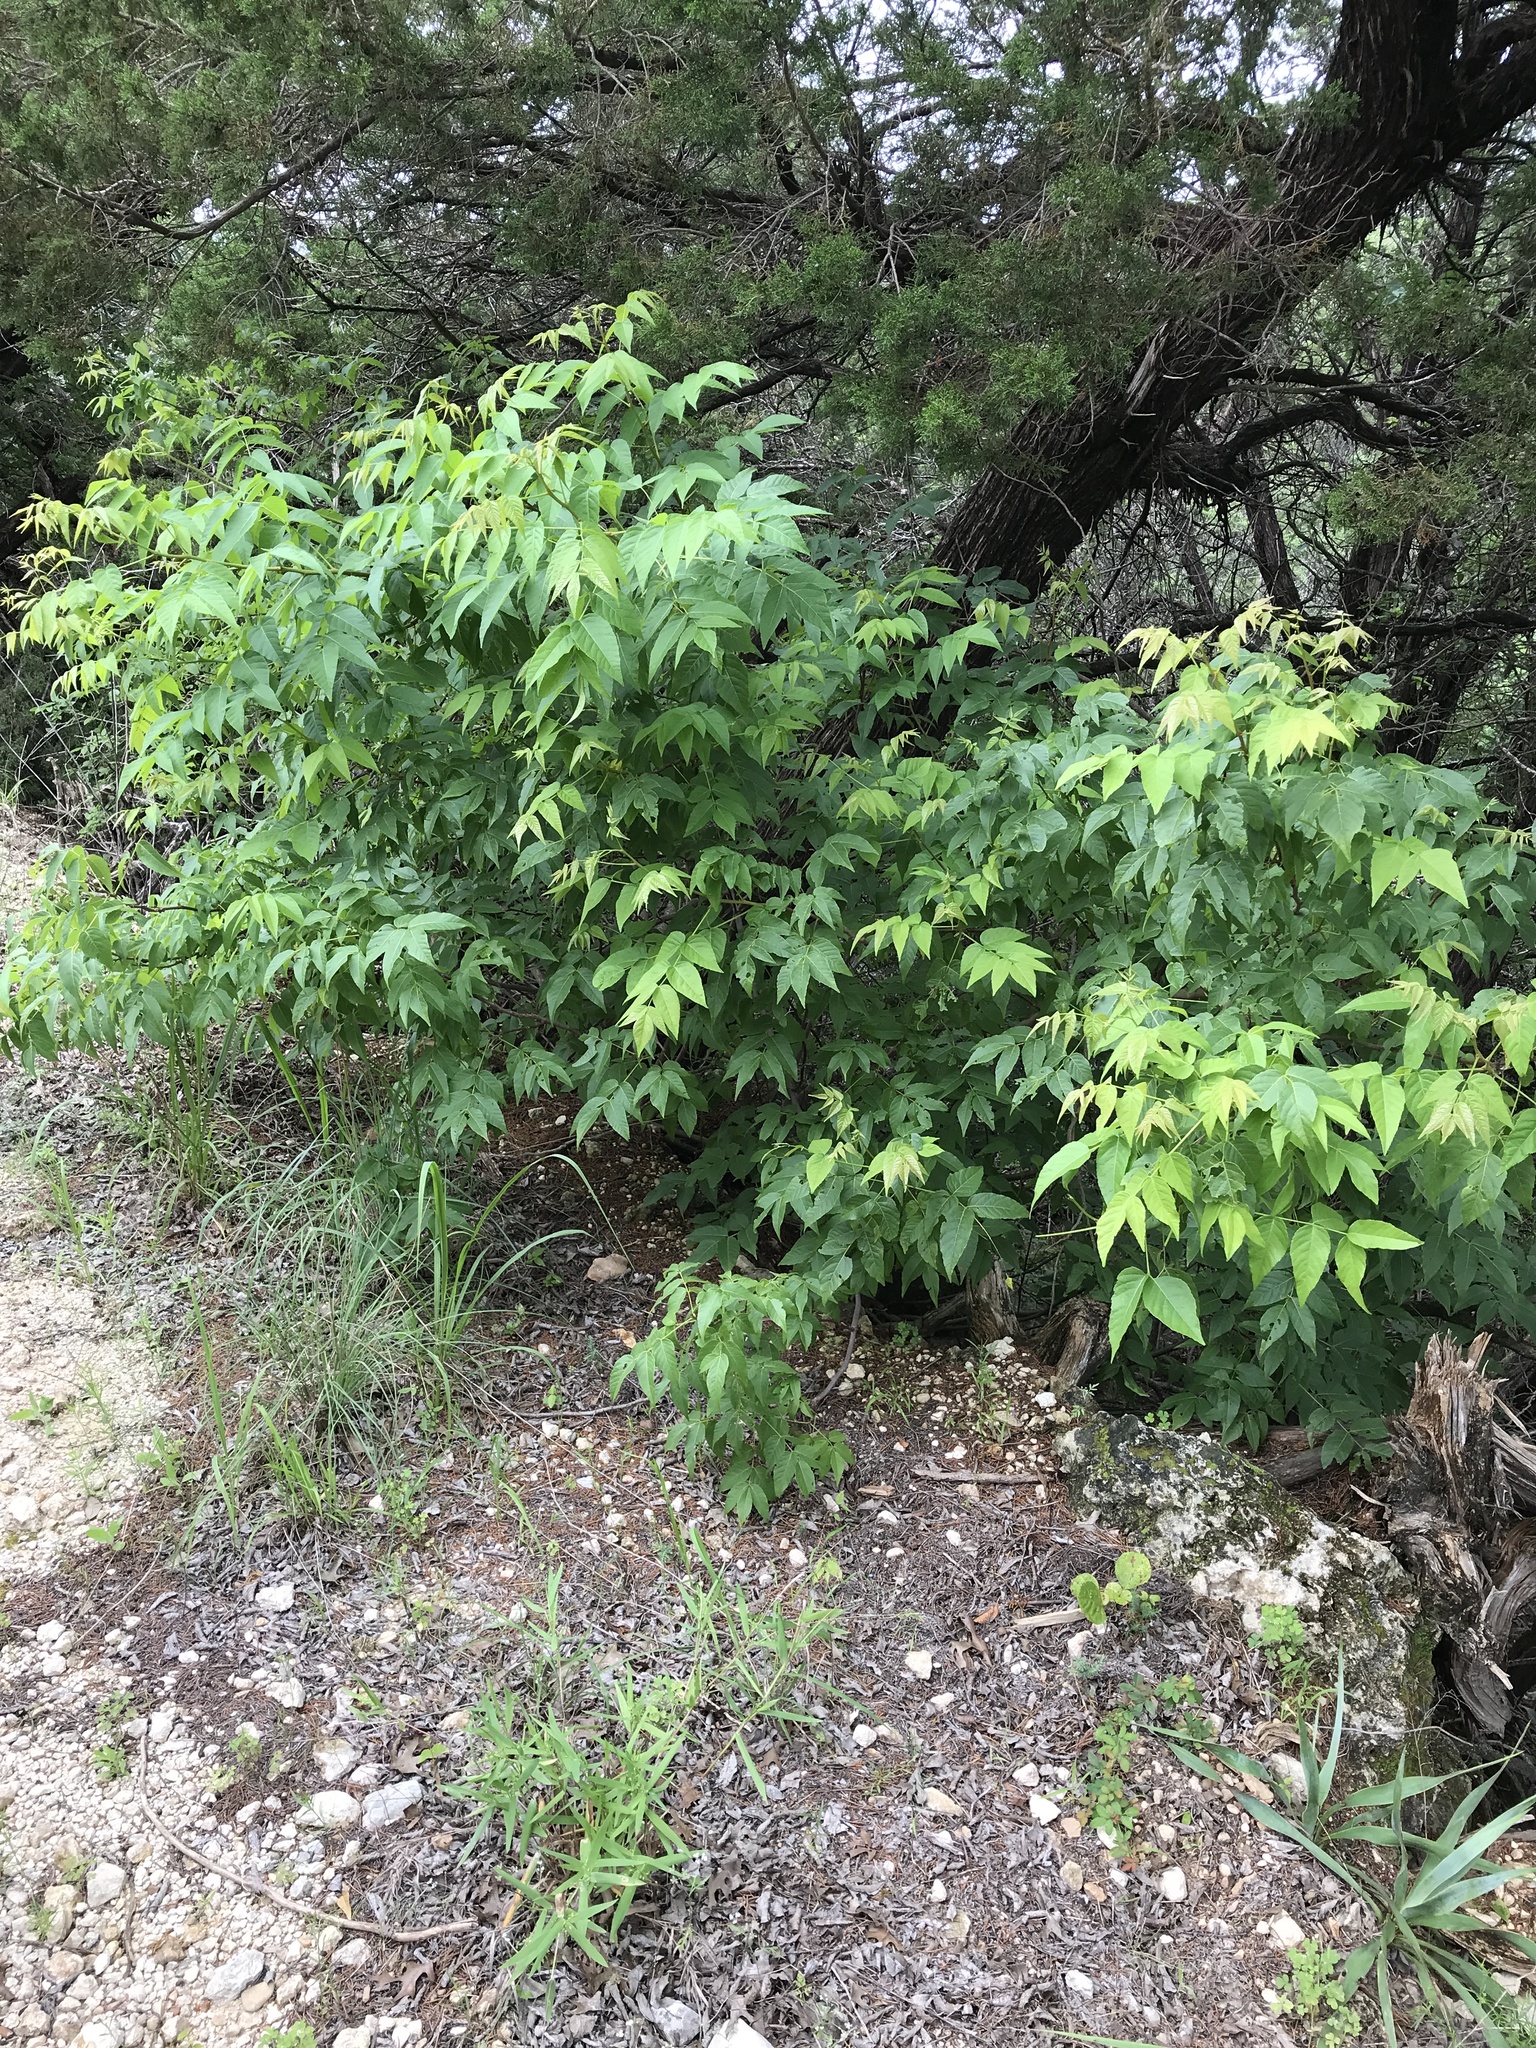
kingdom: Plantae
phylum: Tracheophyta
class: Magnoliopsida
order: Sapindales
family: Sapindaceae
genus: Ungnadia
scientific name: Ungnadia speciosa
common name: Texas-buckeye
